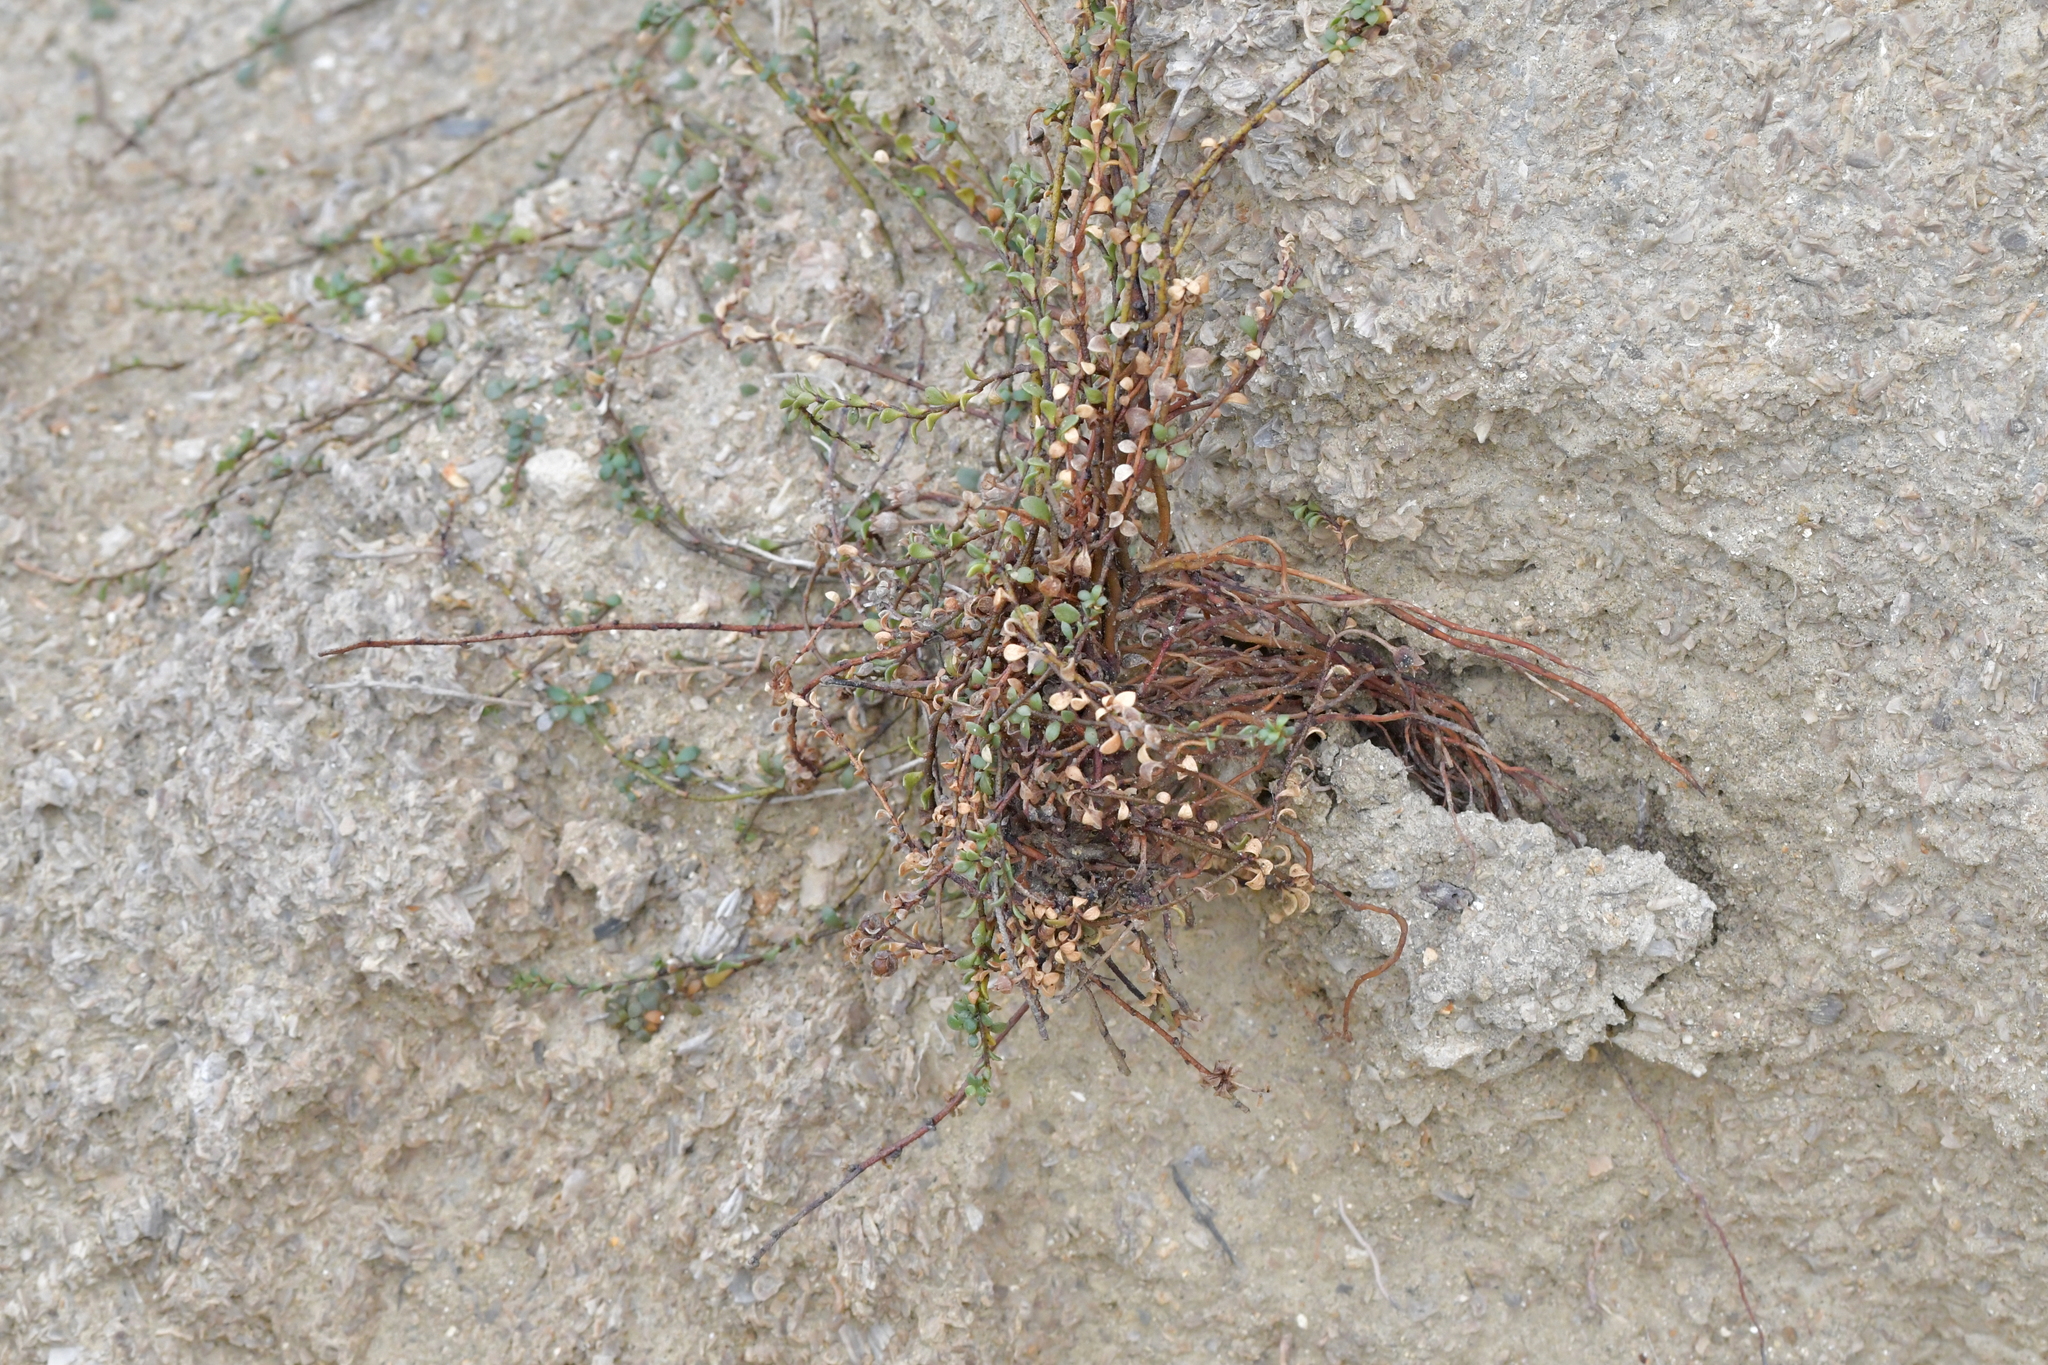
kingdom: Plantae
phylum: Tracheophyta
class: Magnoliopsida
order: Ericales
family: Primulaceae
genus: Samolus
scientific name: Samolus repens
